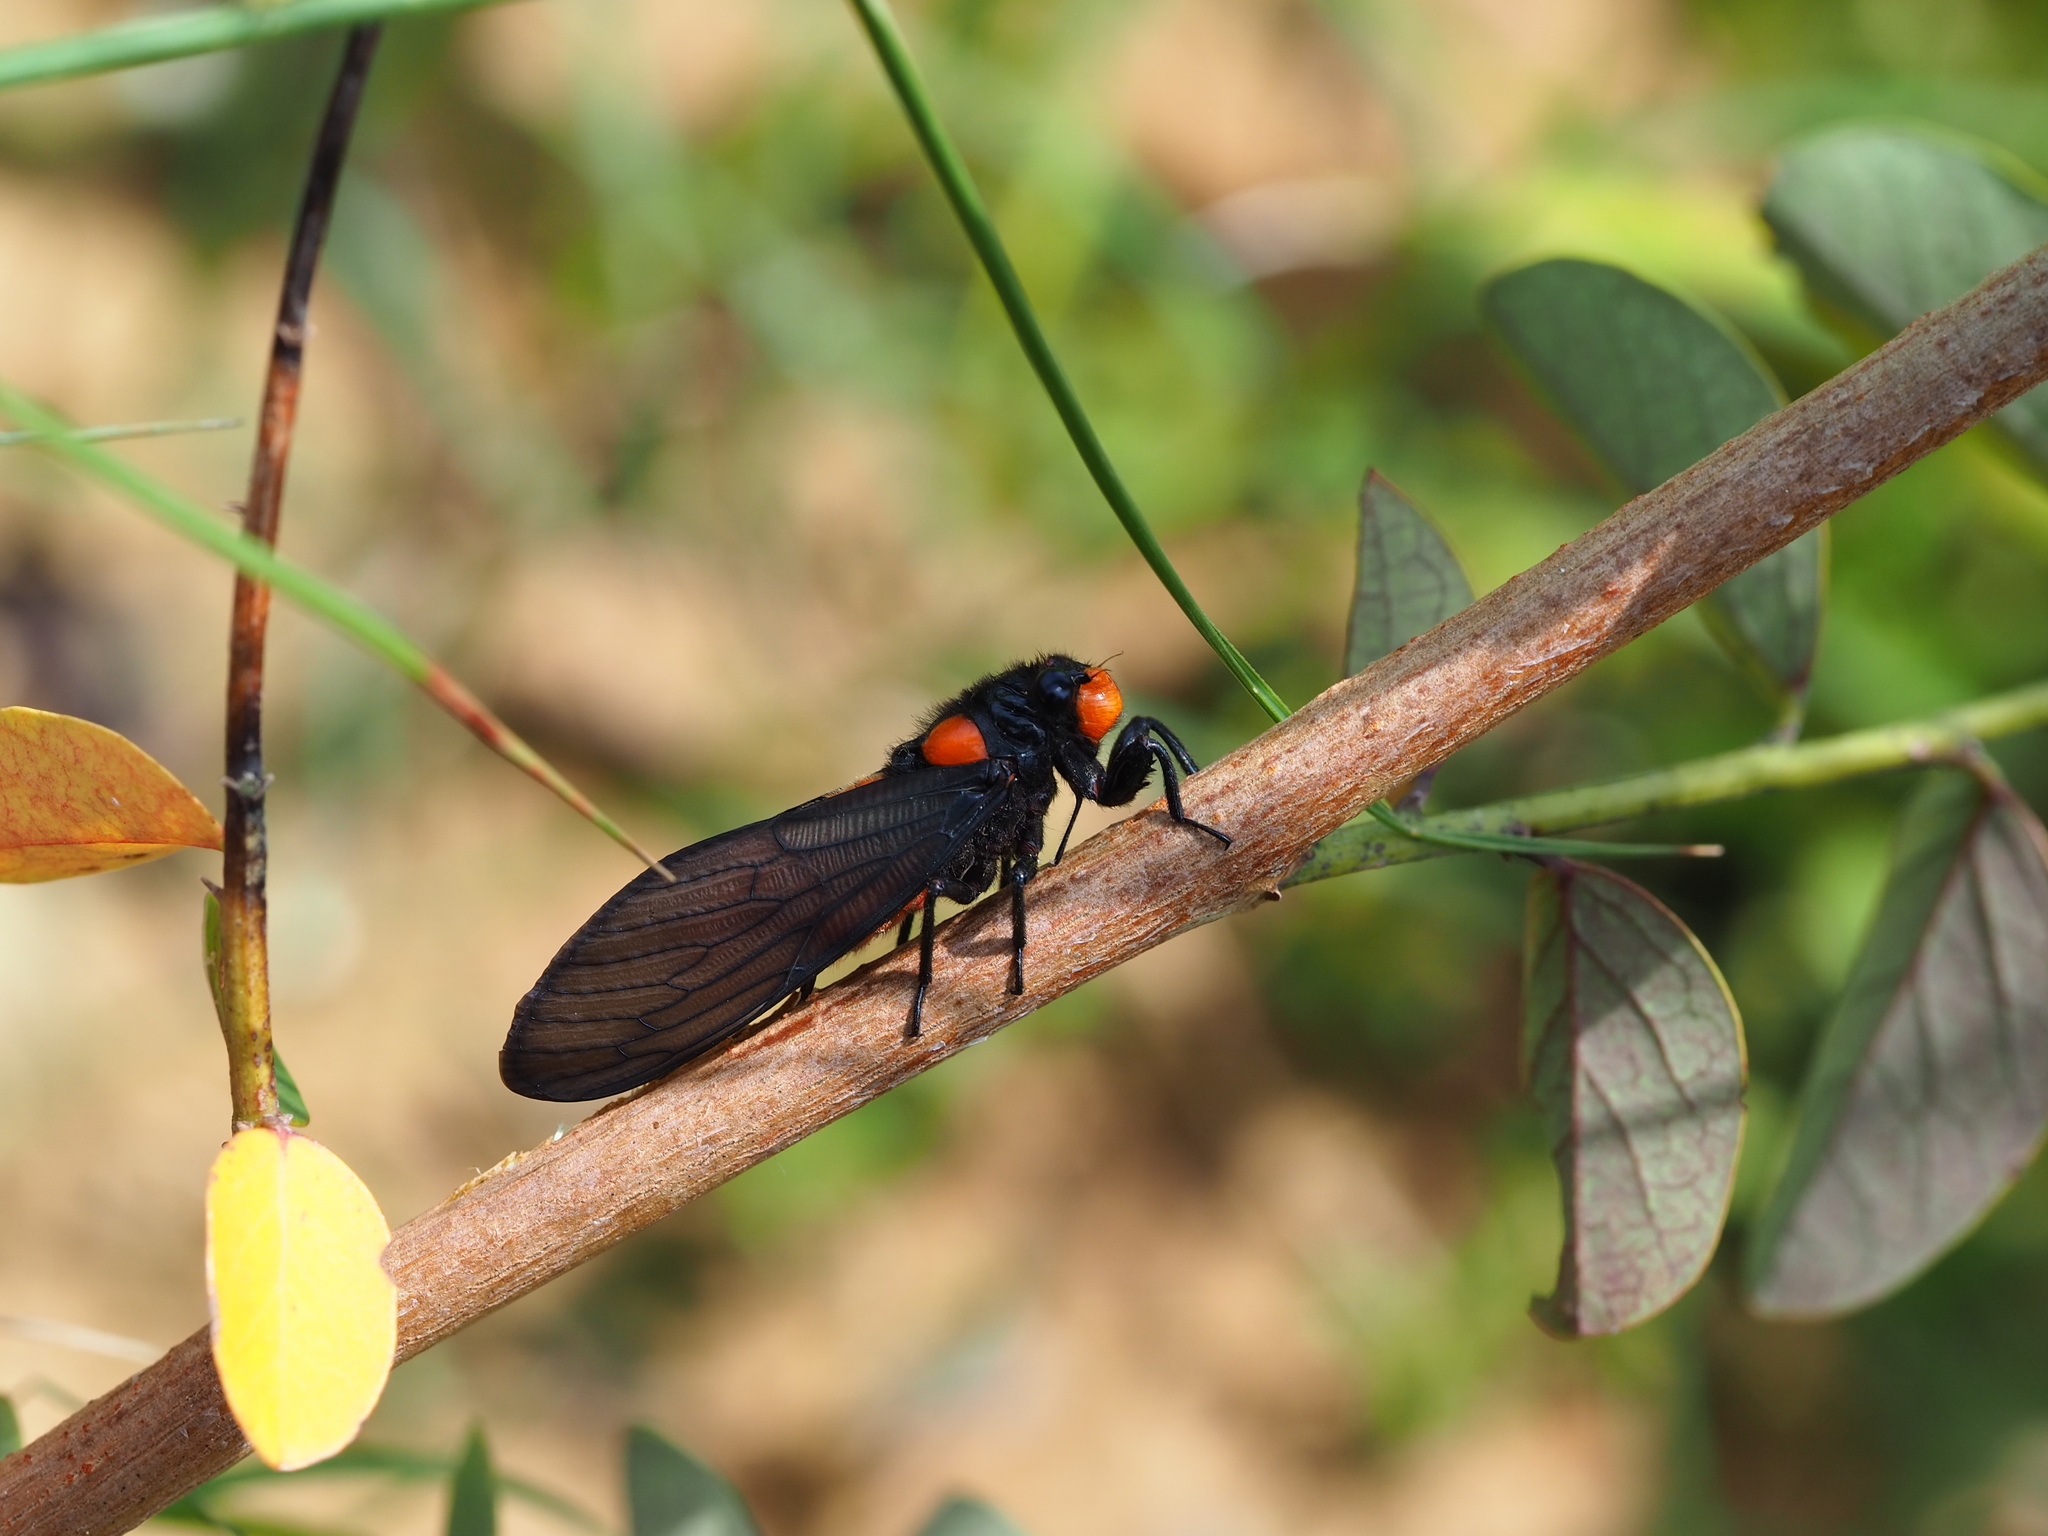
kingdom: Animalia
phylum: Arthropoda
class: Insecta
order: Hemiptera
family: Cicadidae
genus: Huechys
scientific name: Huechys sanguinea
